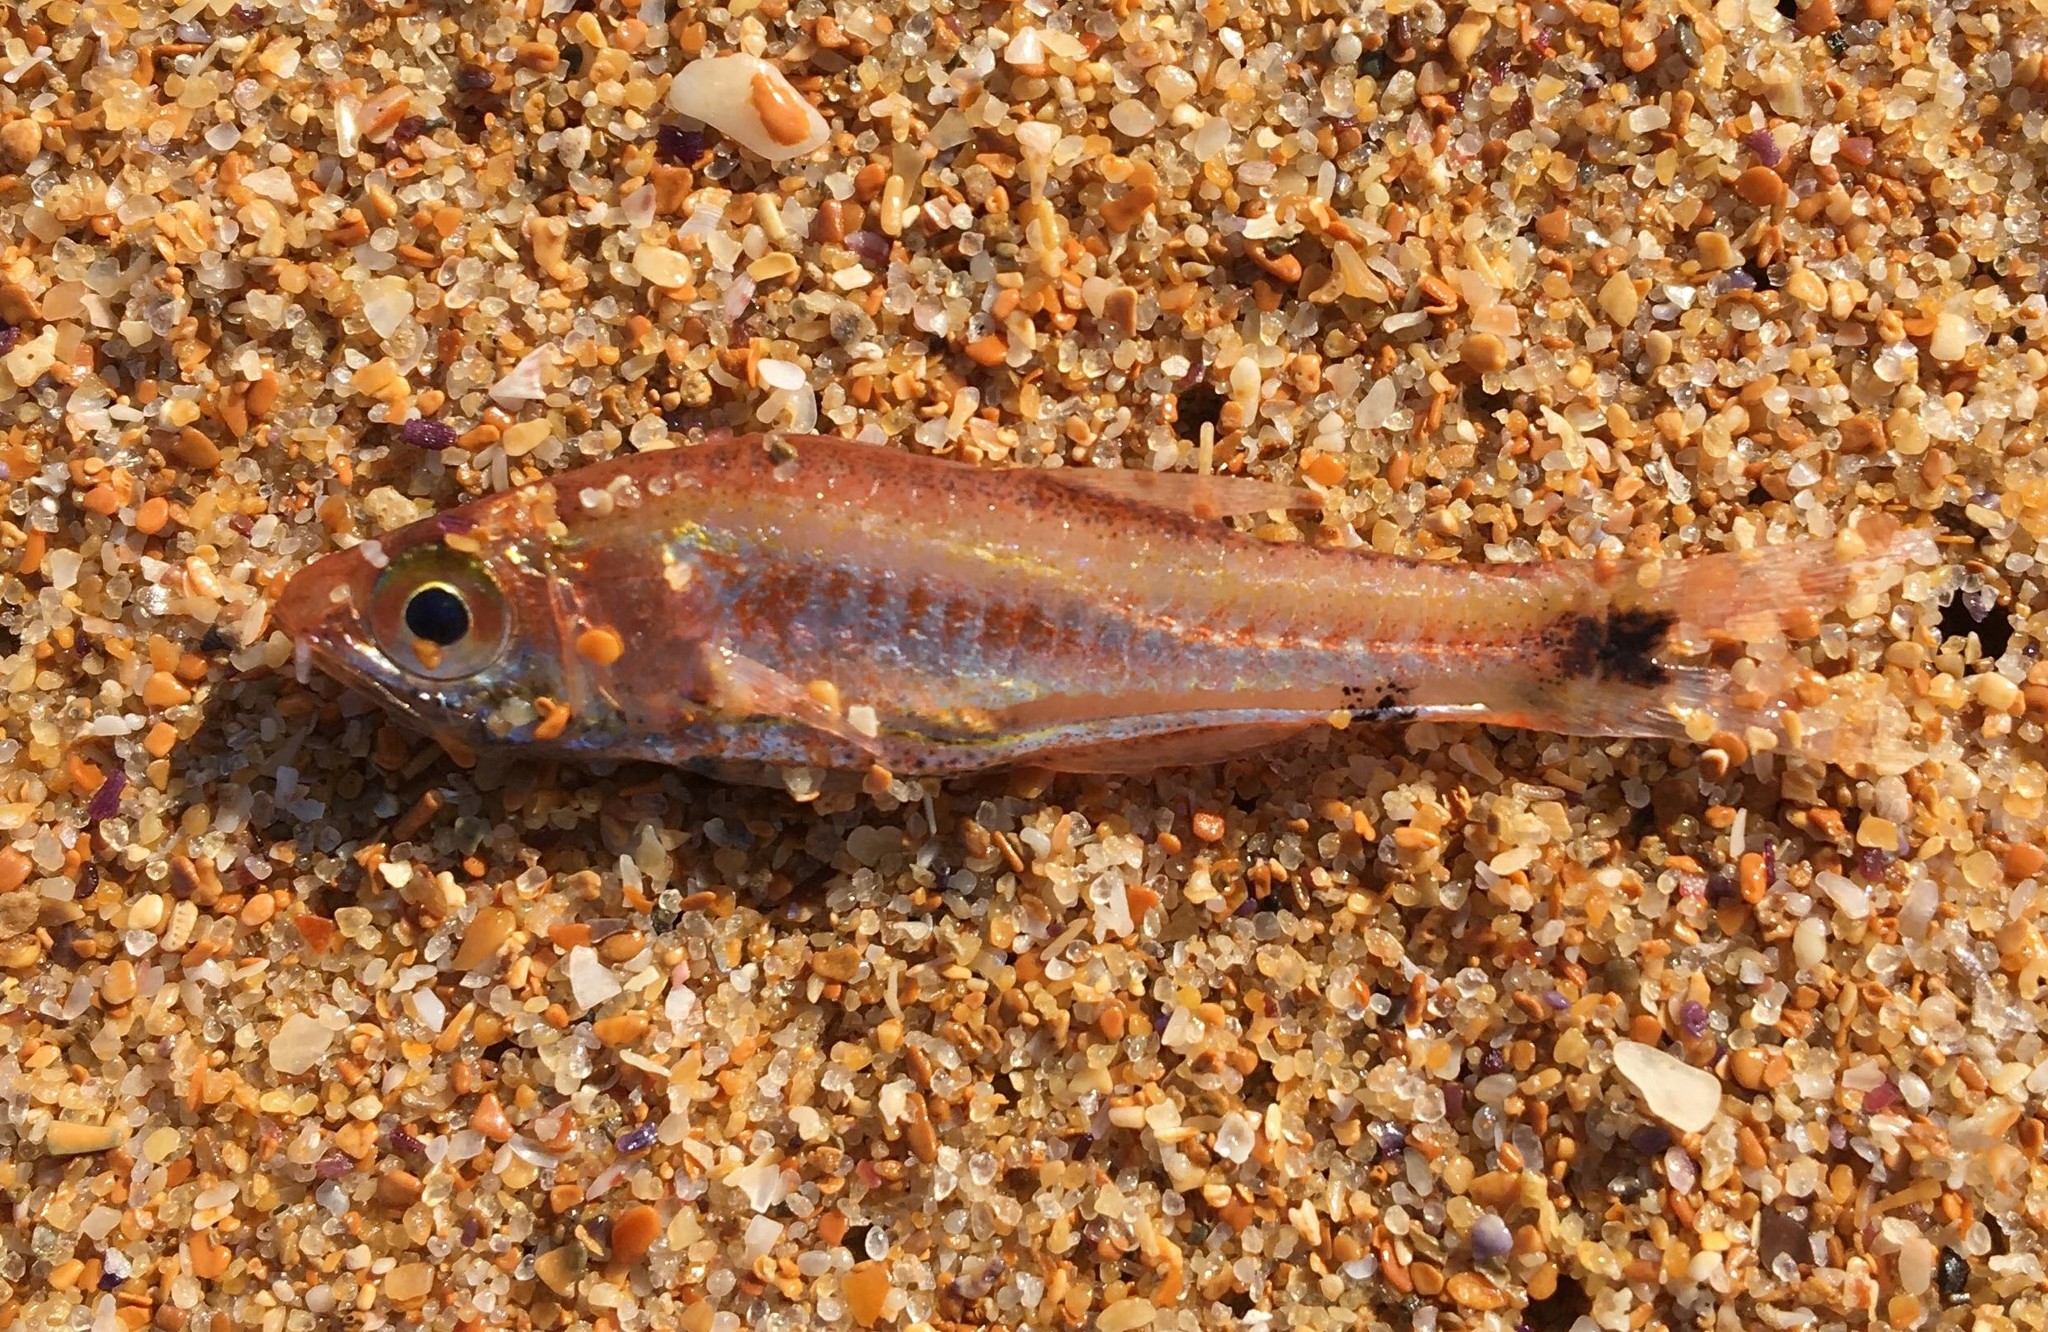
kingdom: Animalia
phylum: Chordata
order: Perciformes
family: Apogonidae
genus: Siphamia
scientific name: Siphamia cephalotes
